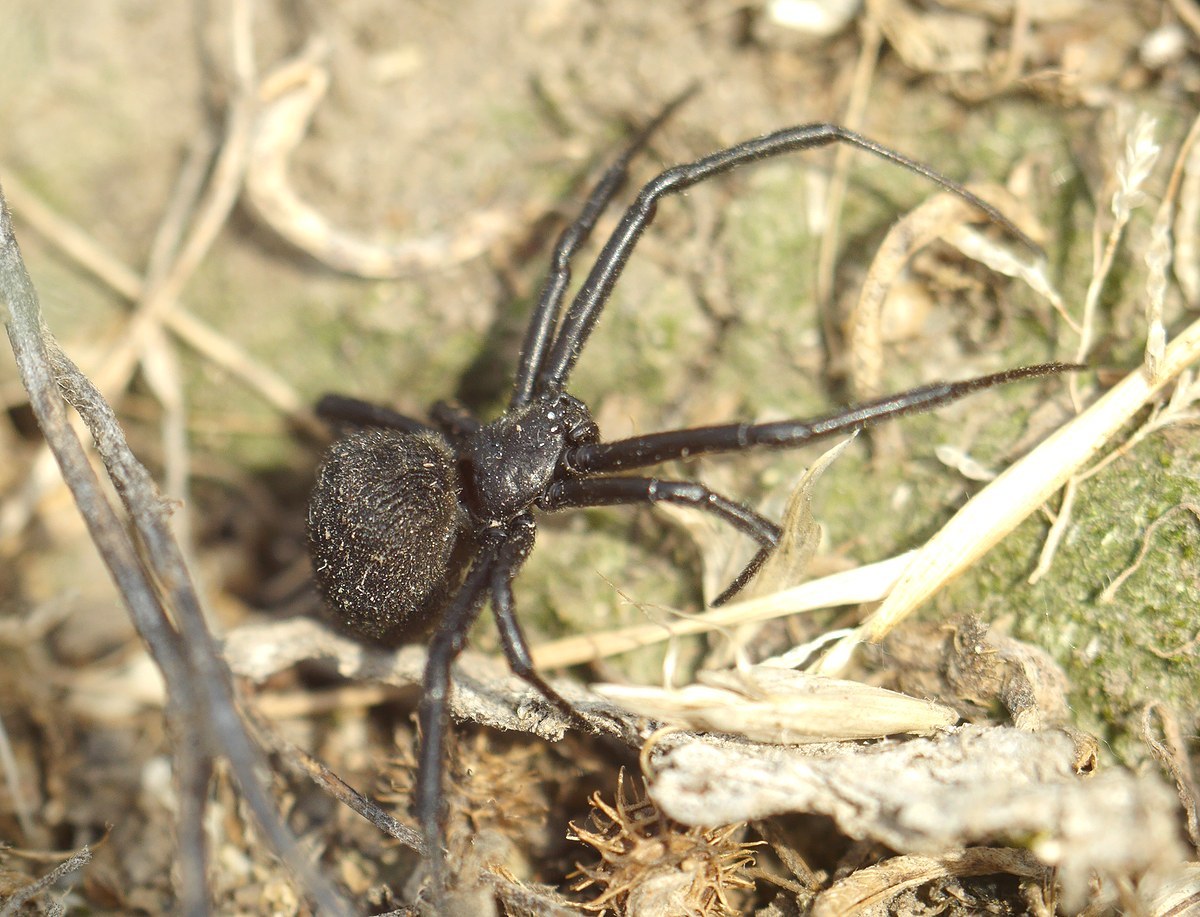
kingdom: Animalia
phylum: Arthropoda
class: Arachnida
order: Araneae
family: Theridiidae
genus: Latrodectus
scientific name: Latrodectus tredecimguttatus
